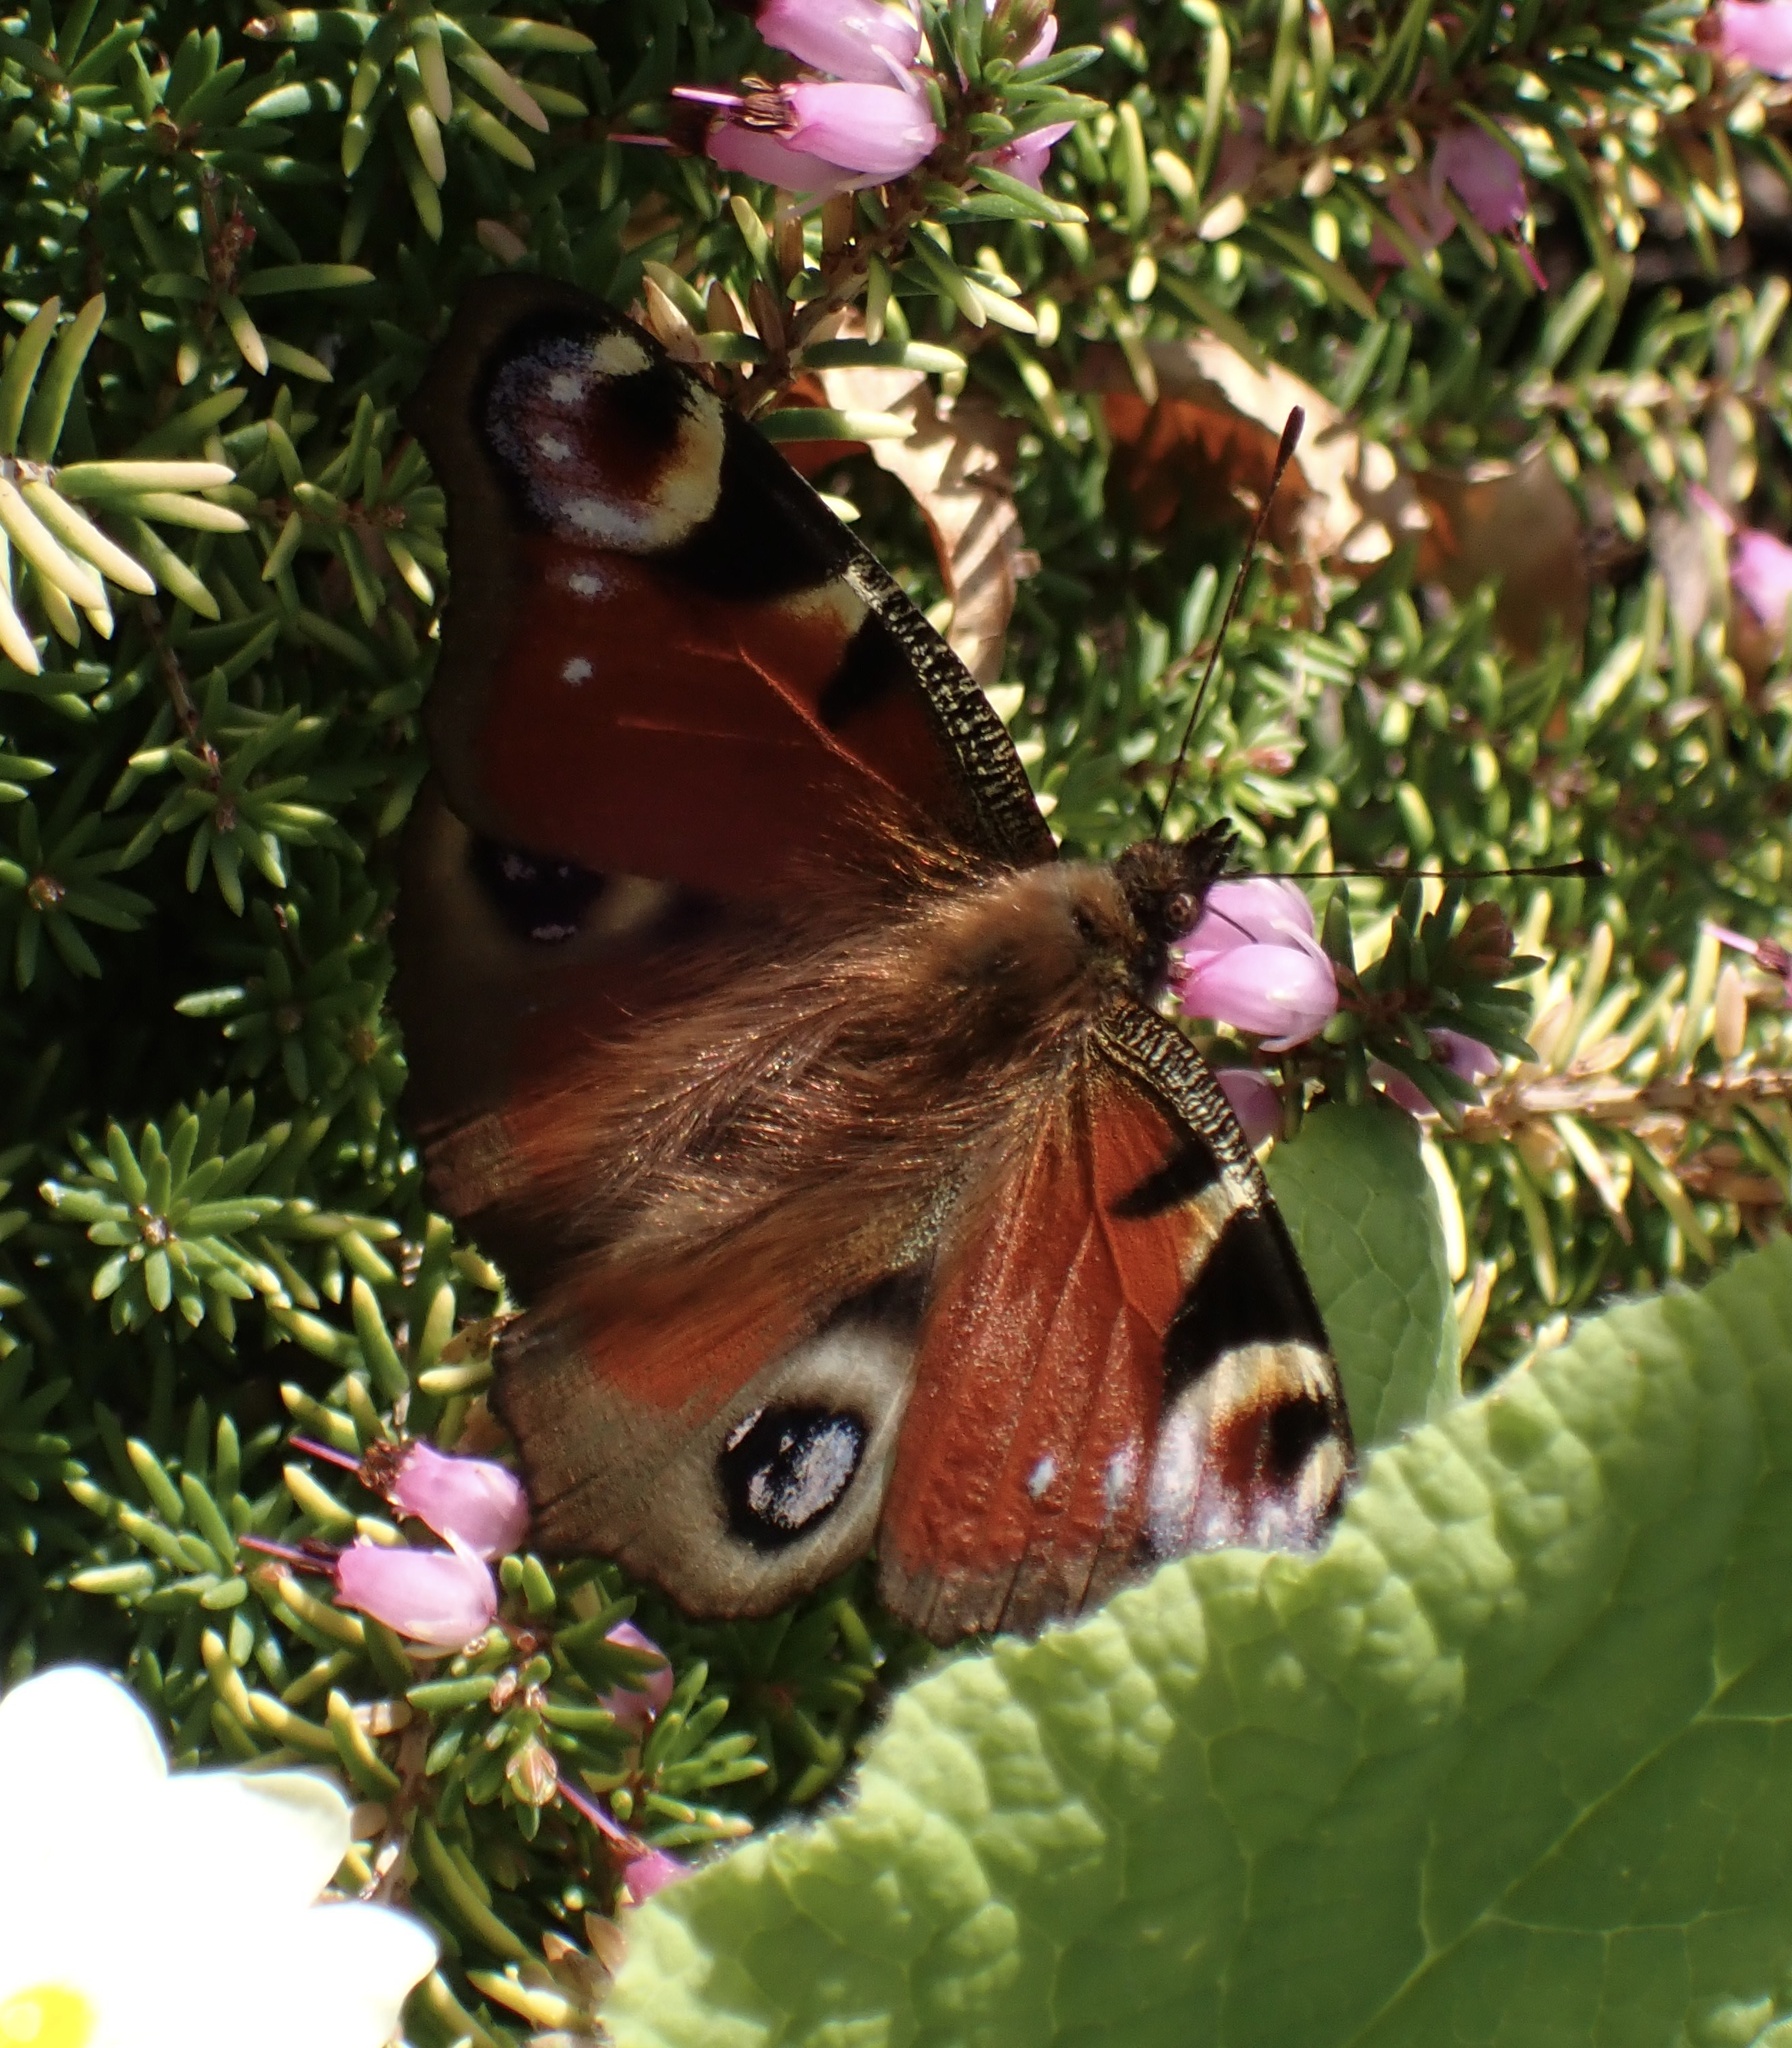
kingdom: Animalia
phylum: Arthropoda
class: Insecta
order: Lepidoptera
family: Nymphalidae
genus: Aglais
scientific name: Aglais io
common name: Peacock
